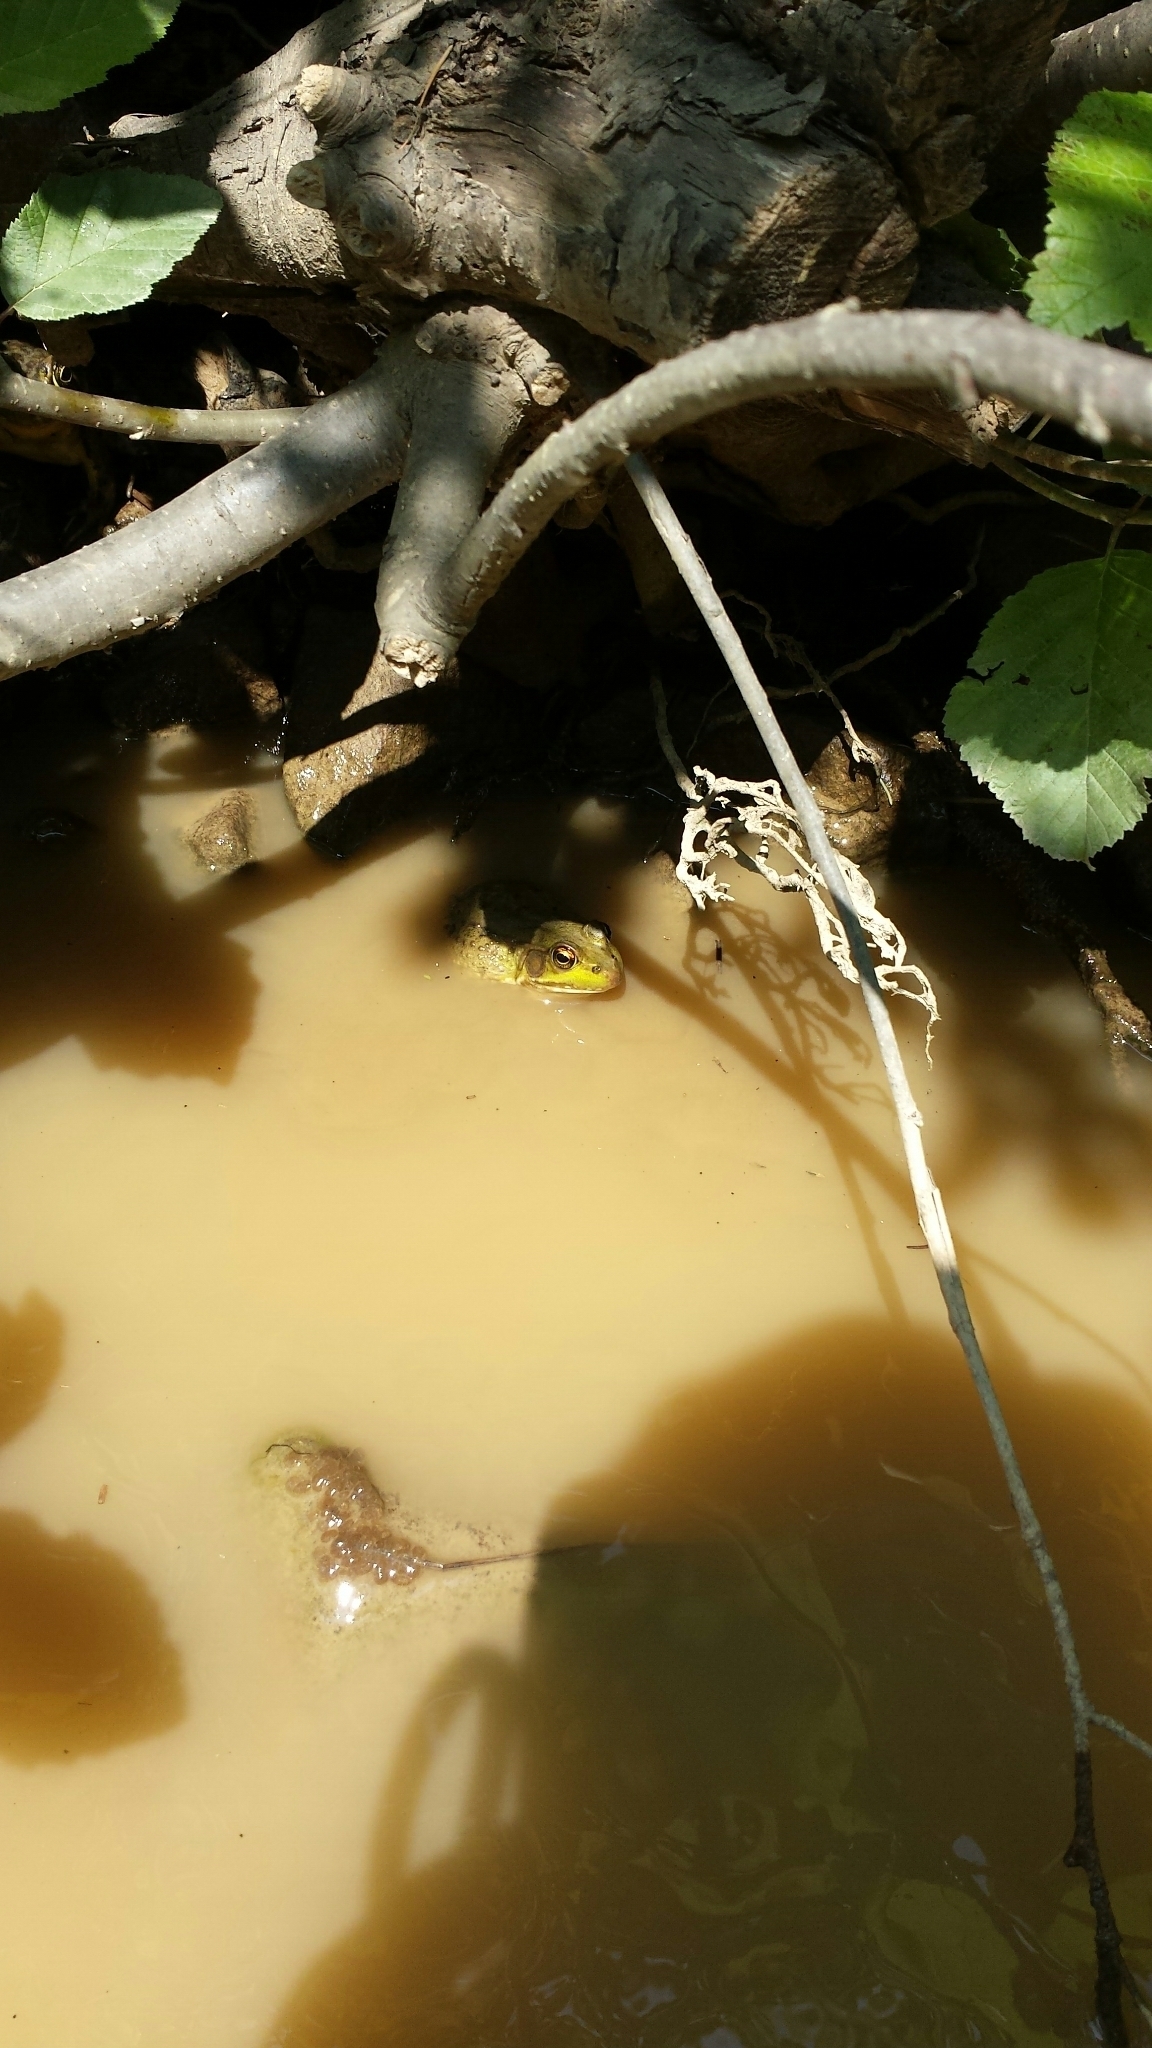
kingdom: Animalia
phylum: Chordata
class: Amphibia
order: Anura
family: Ranidae
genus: Lithobates
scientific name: Lithobates clamitans
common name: Green frog
